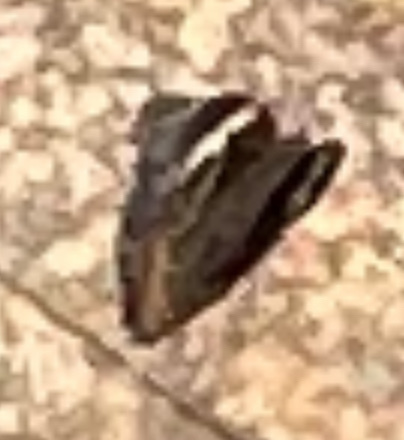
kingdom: Animalia
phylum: Arthropoda
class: Insecta
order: Lepidoptera
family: Nymphalidae
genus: Junonia
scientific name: Junonia coenia
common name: Common buckeye
